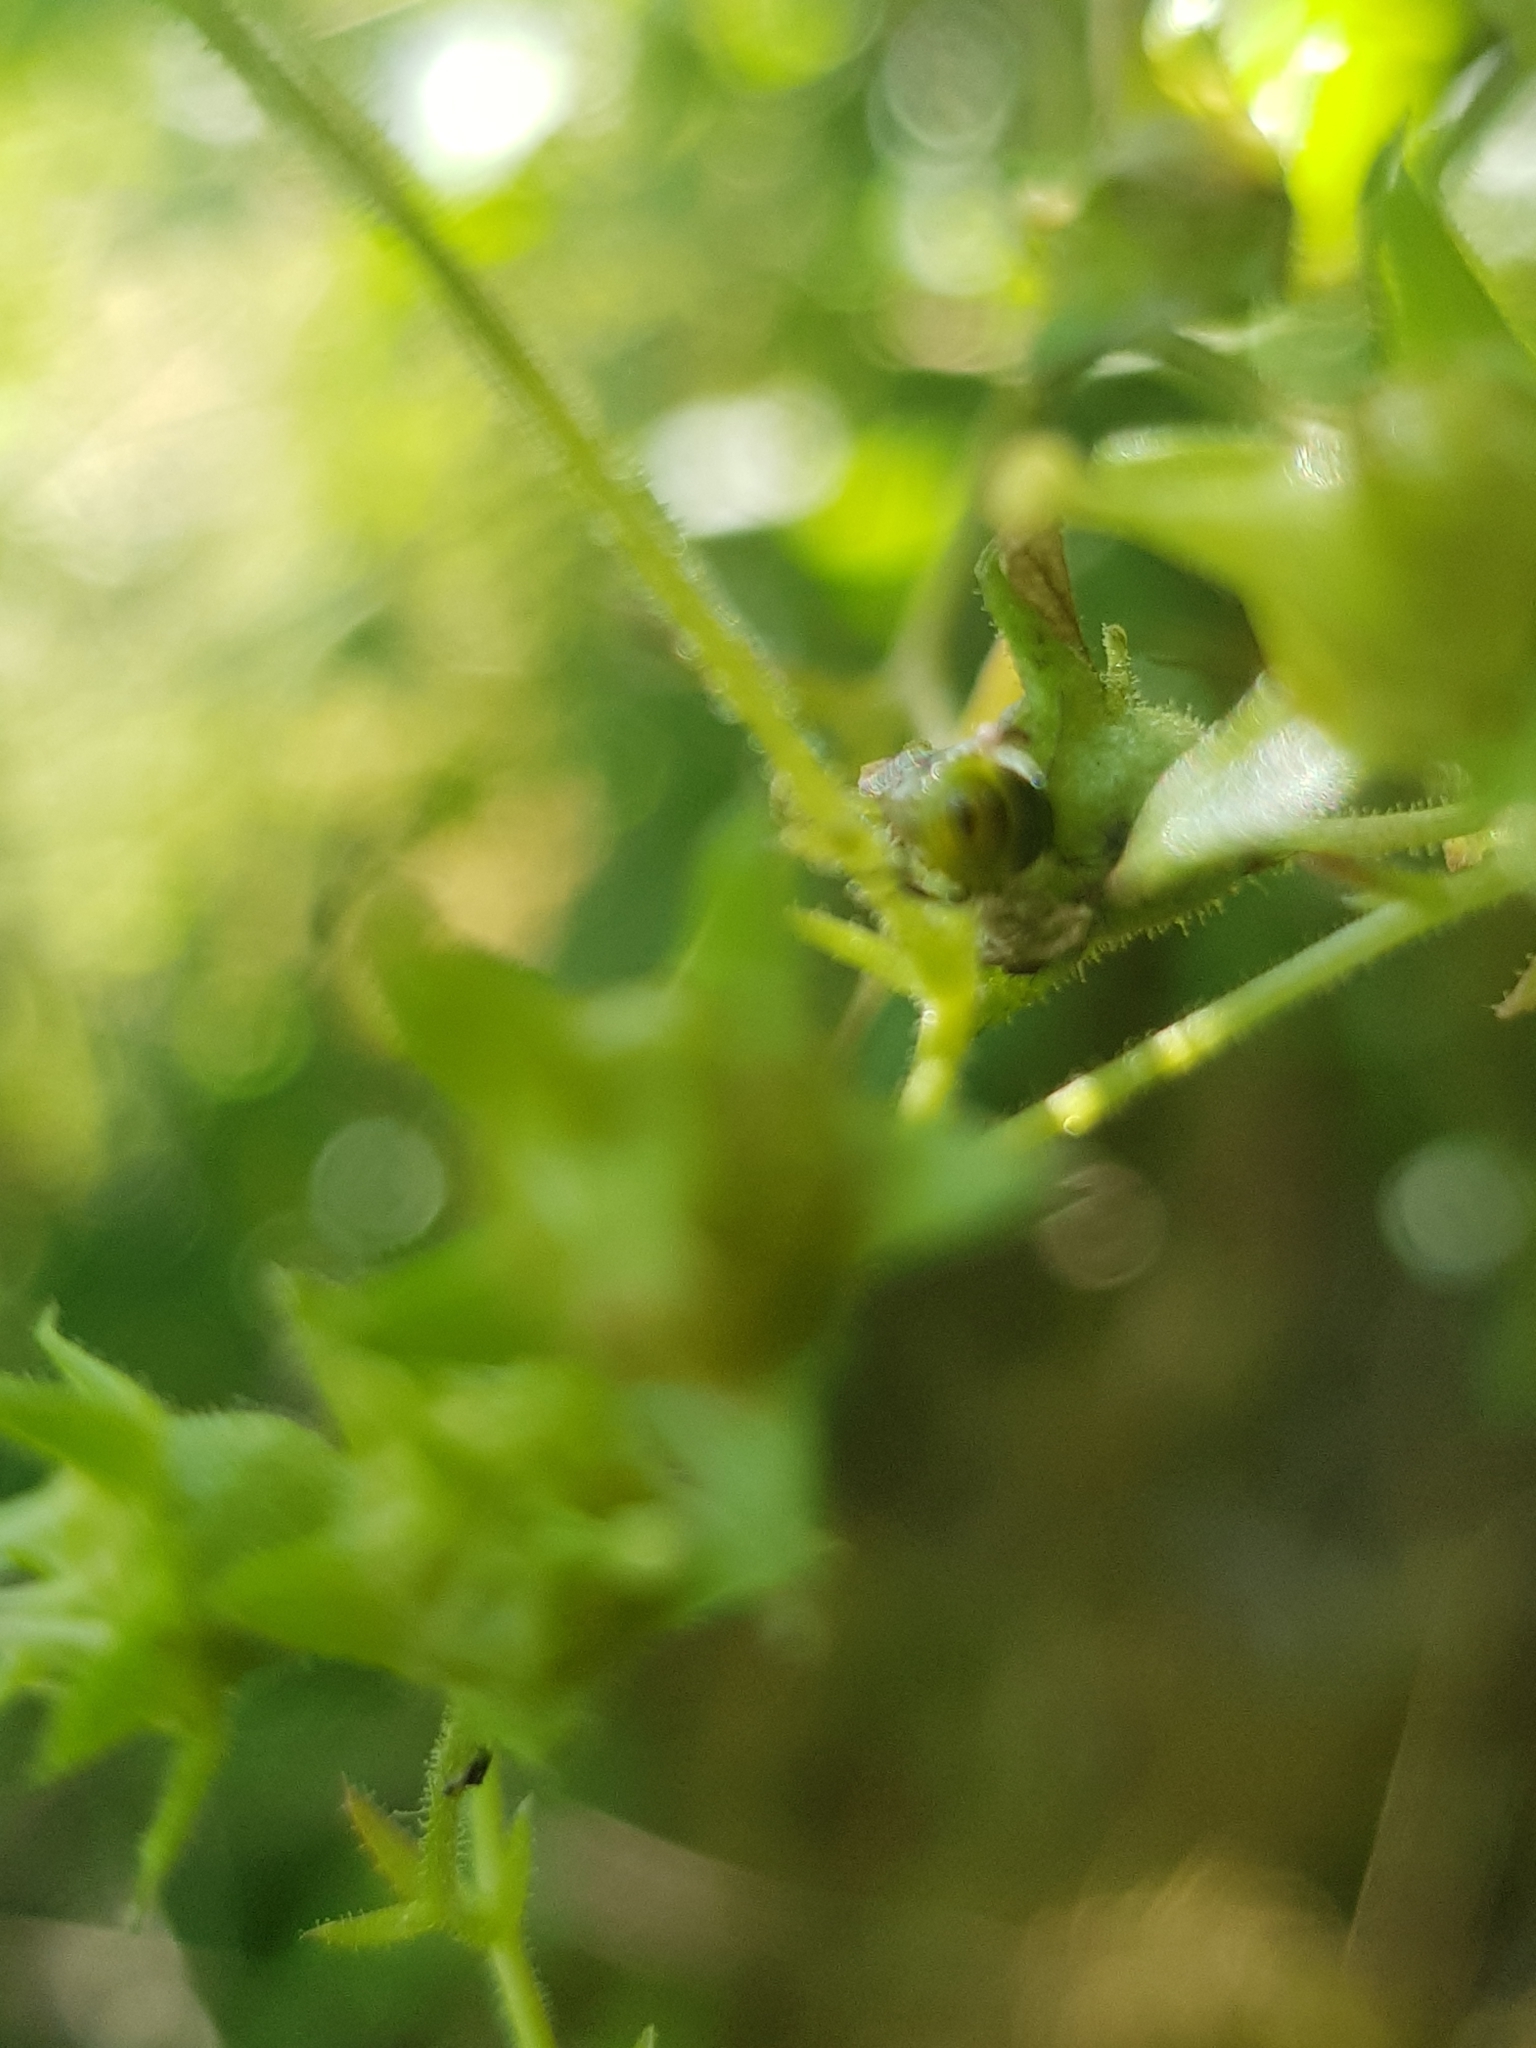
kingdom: Animalia
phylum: Arthropoda
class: Insecta
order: Hemiptera
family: Pentatomidae
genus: Palomena
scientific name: Palomena prasina
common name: Green shieldbug
